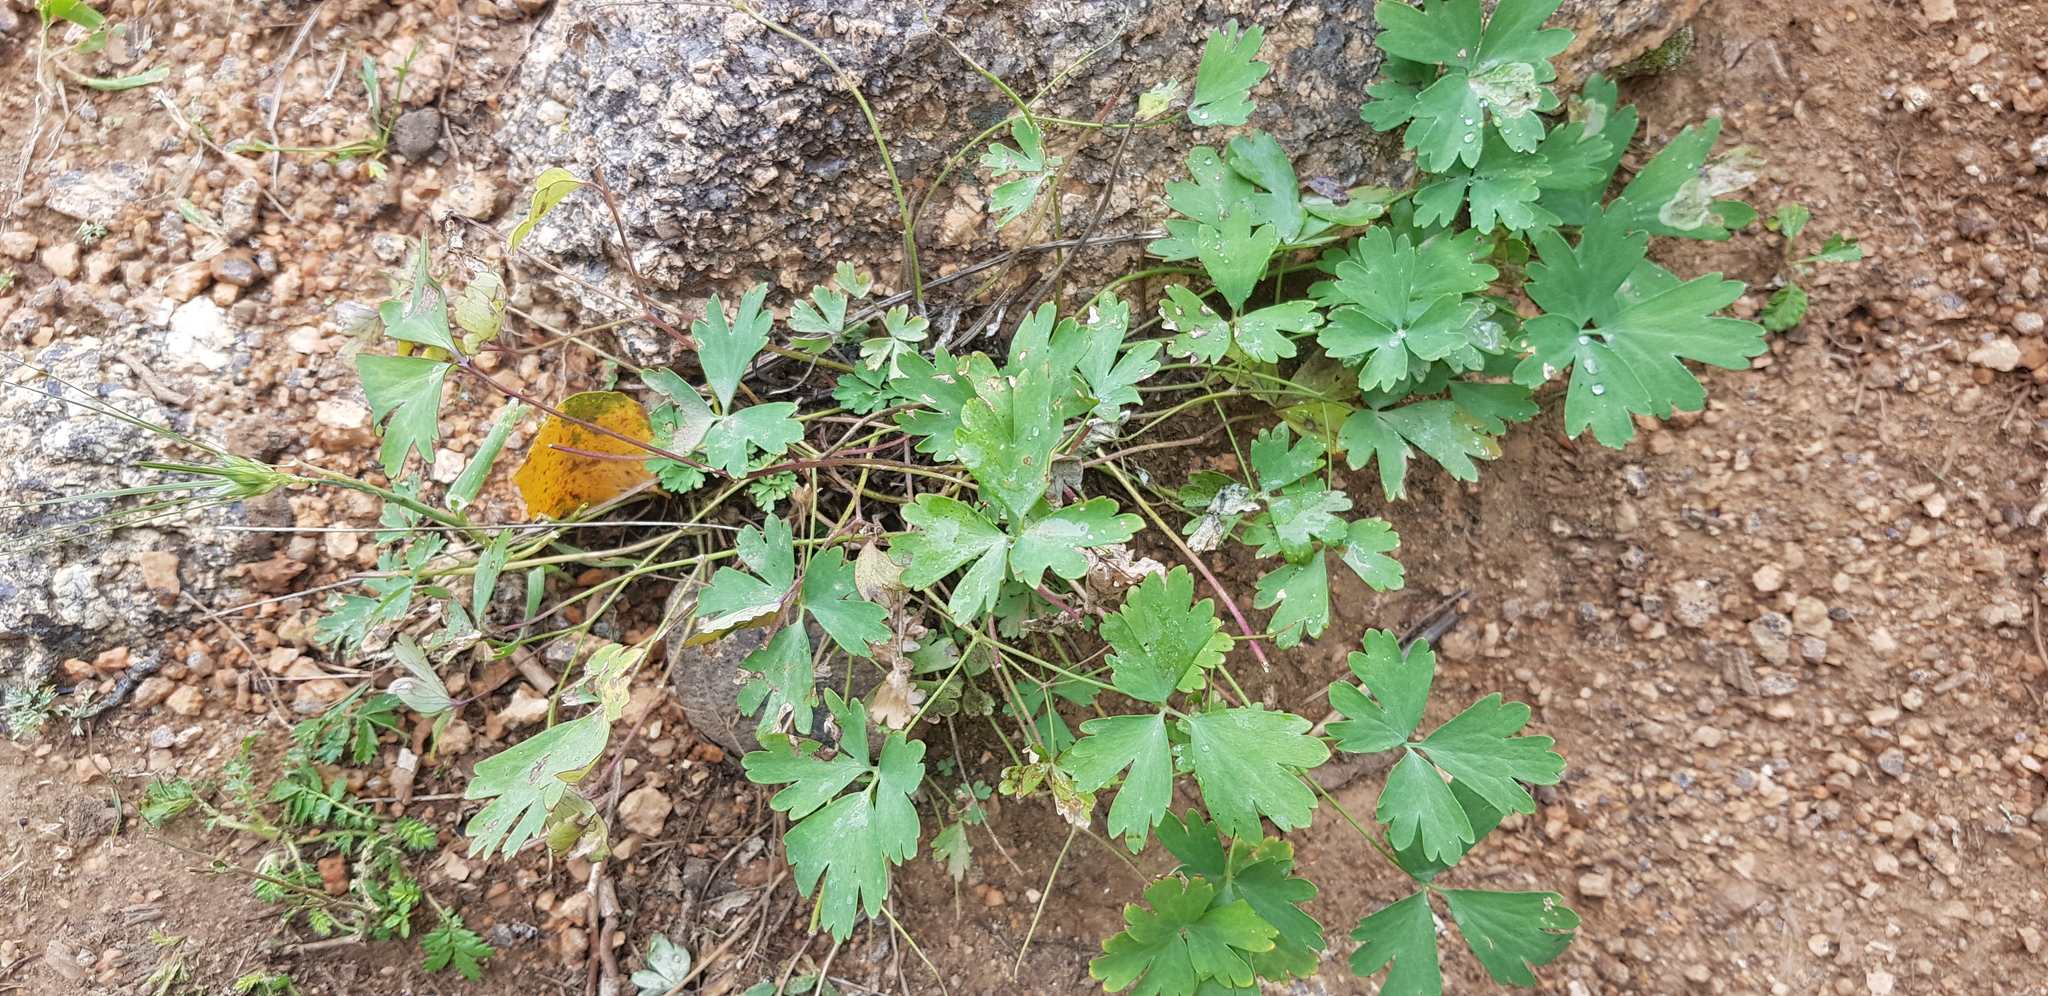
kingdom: Plantae
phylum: Tracheophyta
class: Magnoliopsida
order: Ranunculales
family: Ranunculaceae
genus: Aquilegia
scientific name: Aquilegia viridiflora
